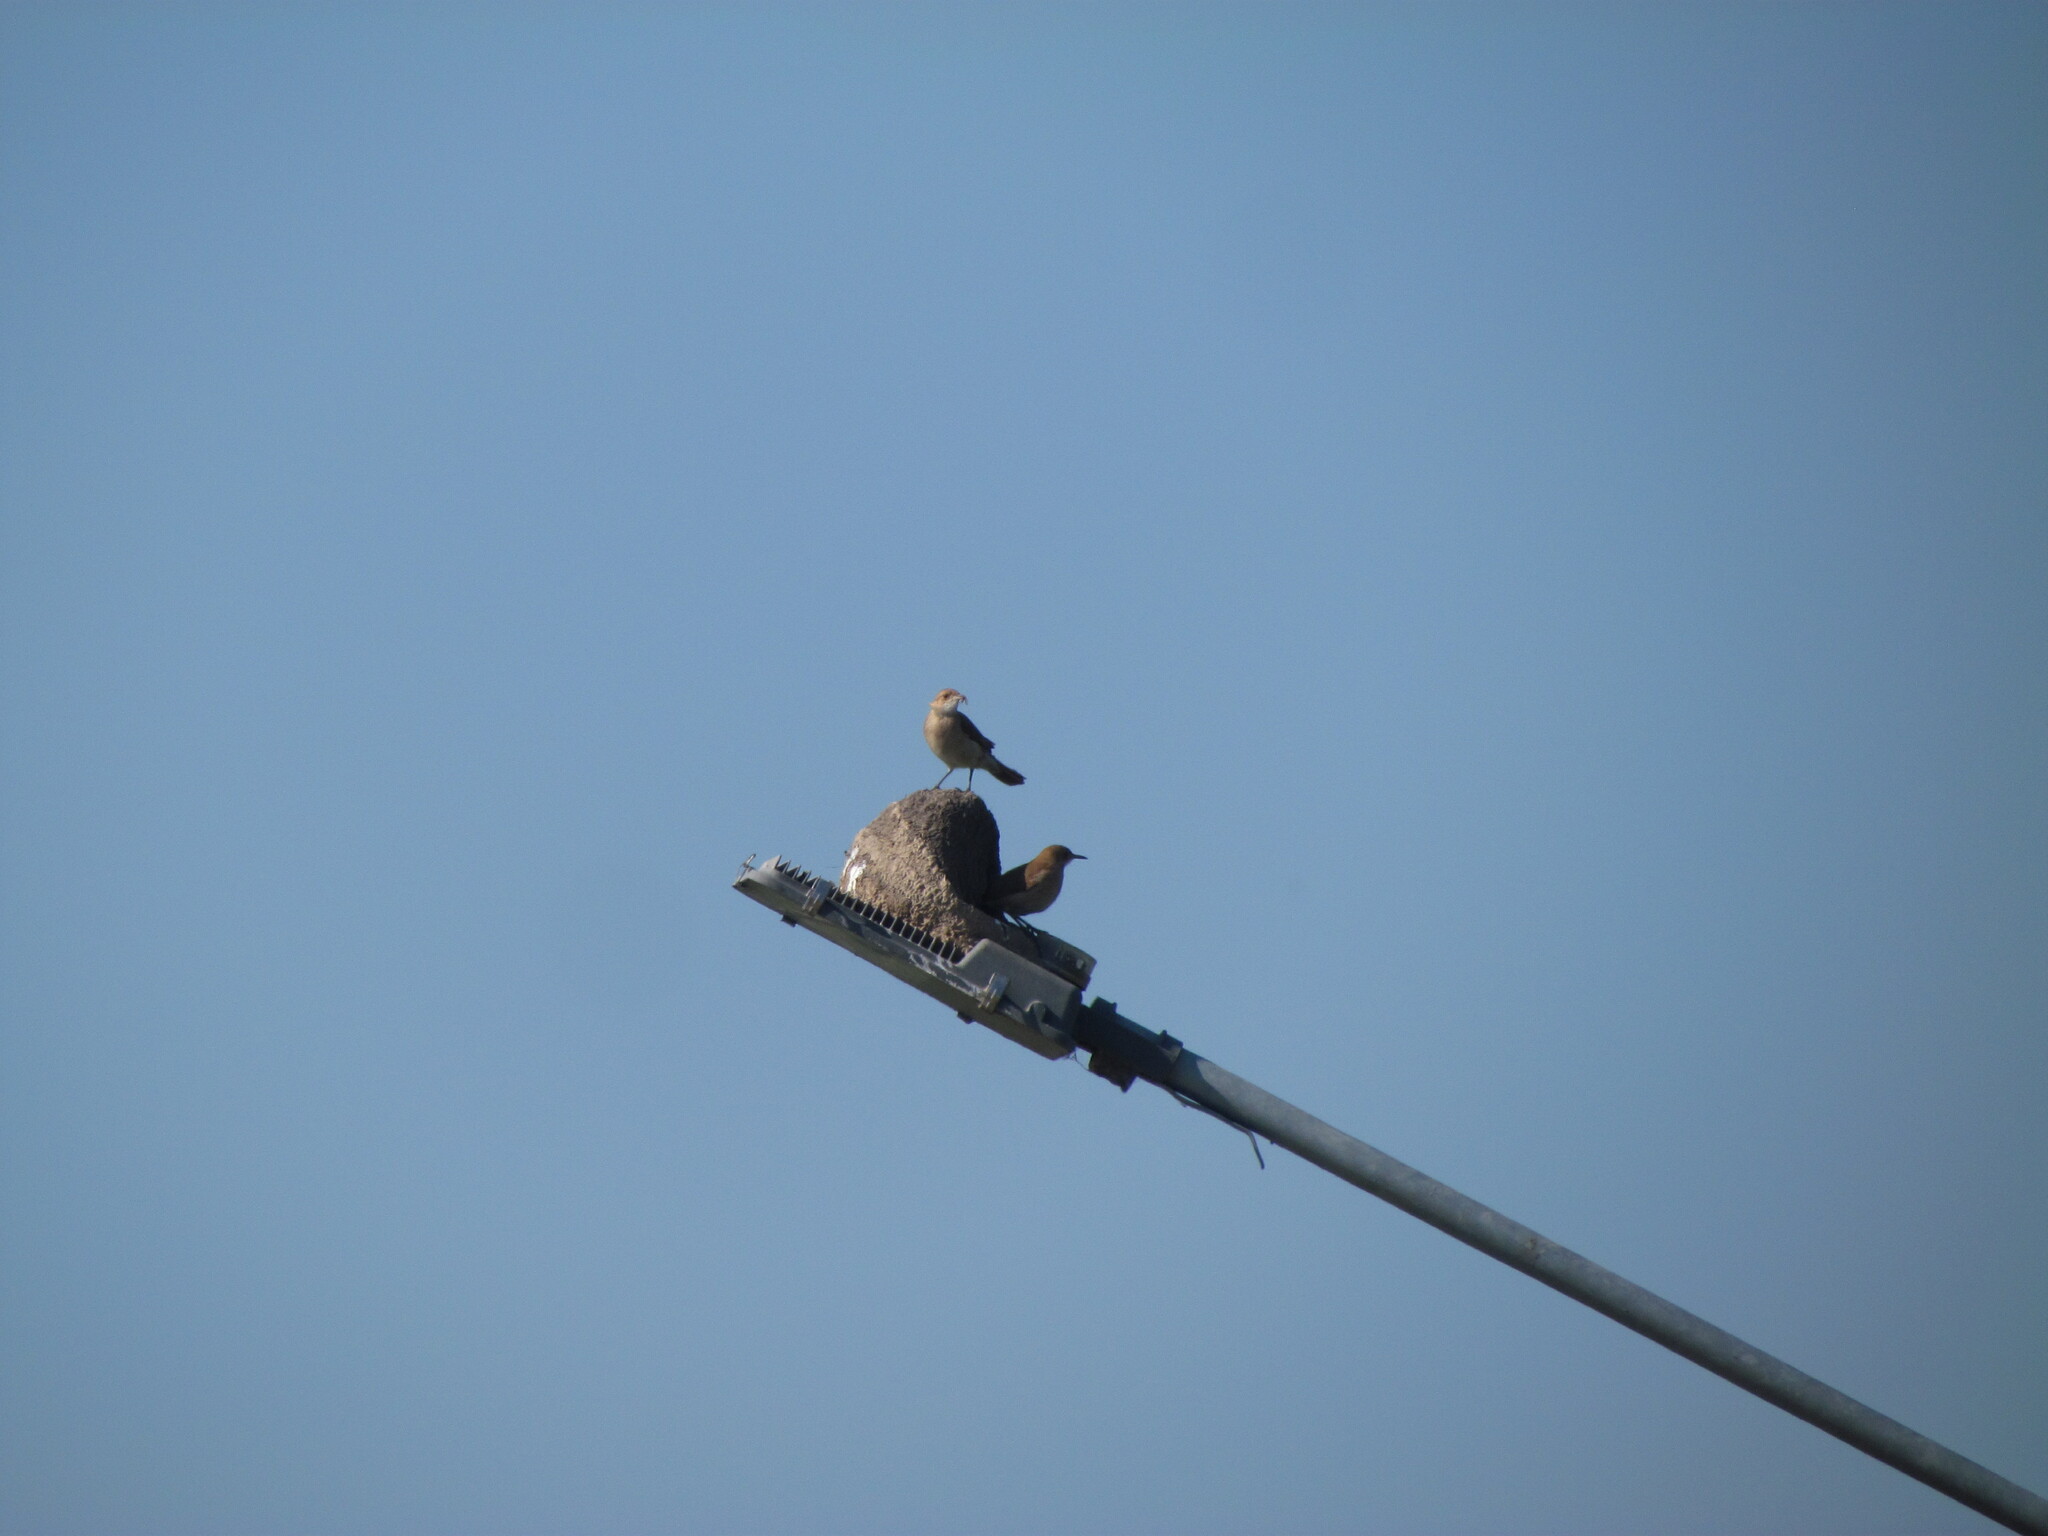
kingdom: Animalia
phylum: Chordata
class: Aves
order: Passeriformes
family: Furnariidae
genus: Furnarius
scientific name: Furnarius rufus
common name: Rufous hornero
